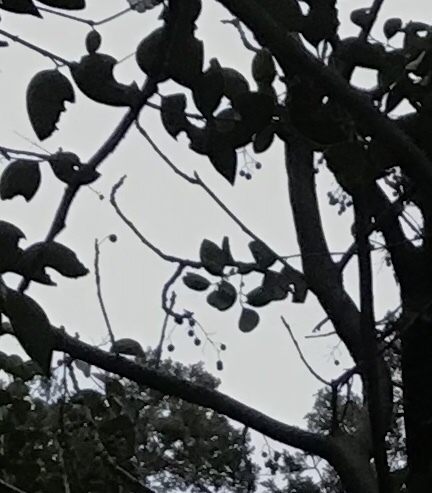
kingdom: Plantae
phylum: Tracheophyta
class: Magnoliopsida
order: Sapindales
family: Meliaceae
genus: Melia
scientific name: Melia azedarach
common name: Chinaberrytree
